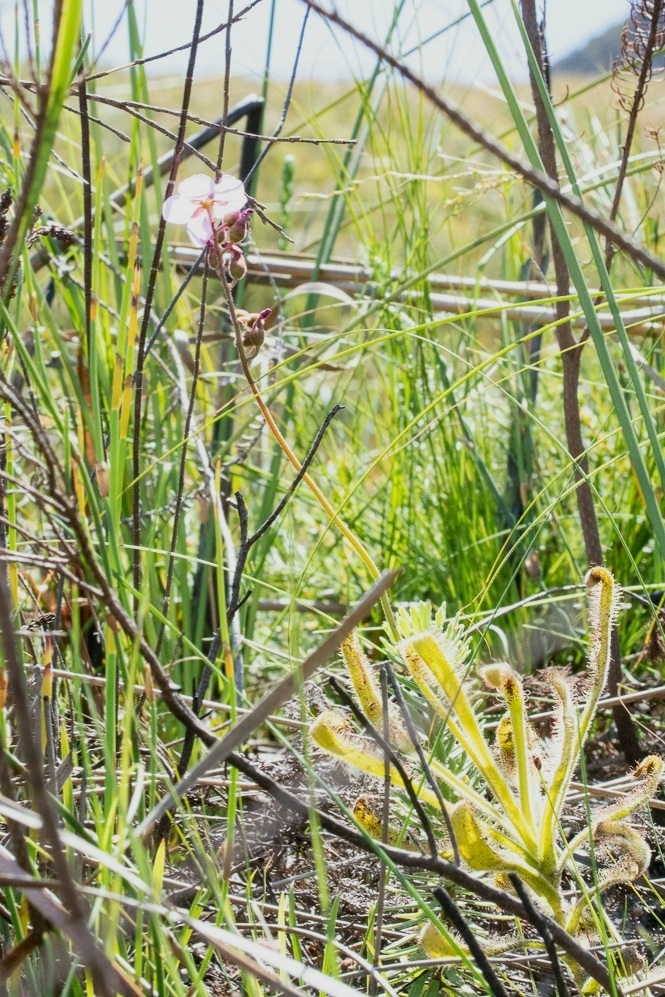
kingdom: Plantae
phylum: Tracheophyta
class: Magnoliopsida
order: Caryophyllales
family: Droseraceae
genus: Drosera
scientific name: Drosera hilaris
